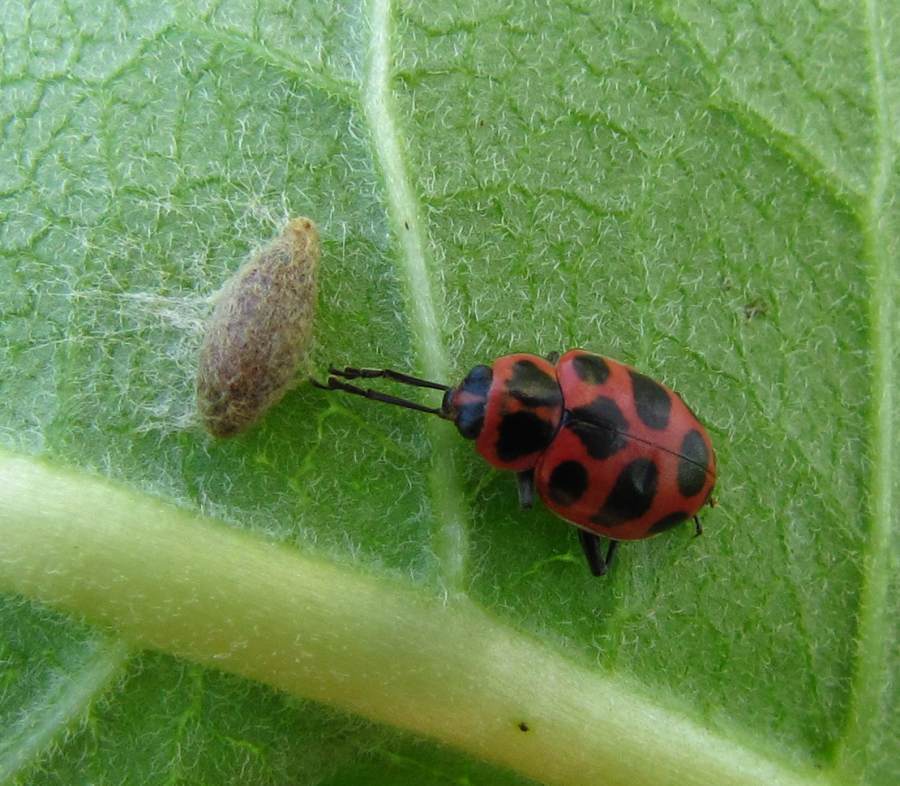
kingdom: Animalia
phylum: Arthropoda
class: Insecta
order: Coleoptera
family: Coccinellidae
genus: Coleomegilla
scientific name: Coleomegilla maculata
